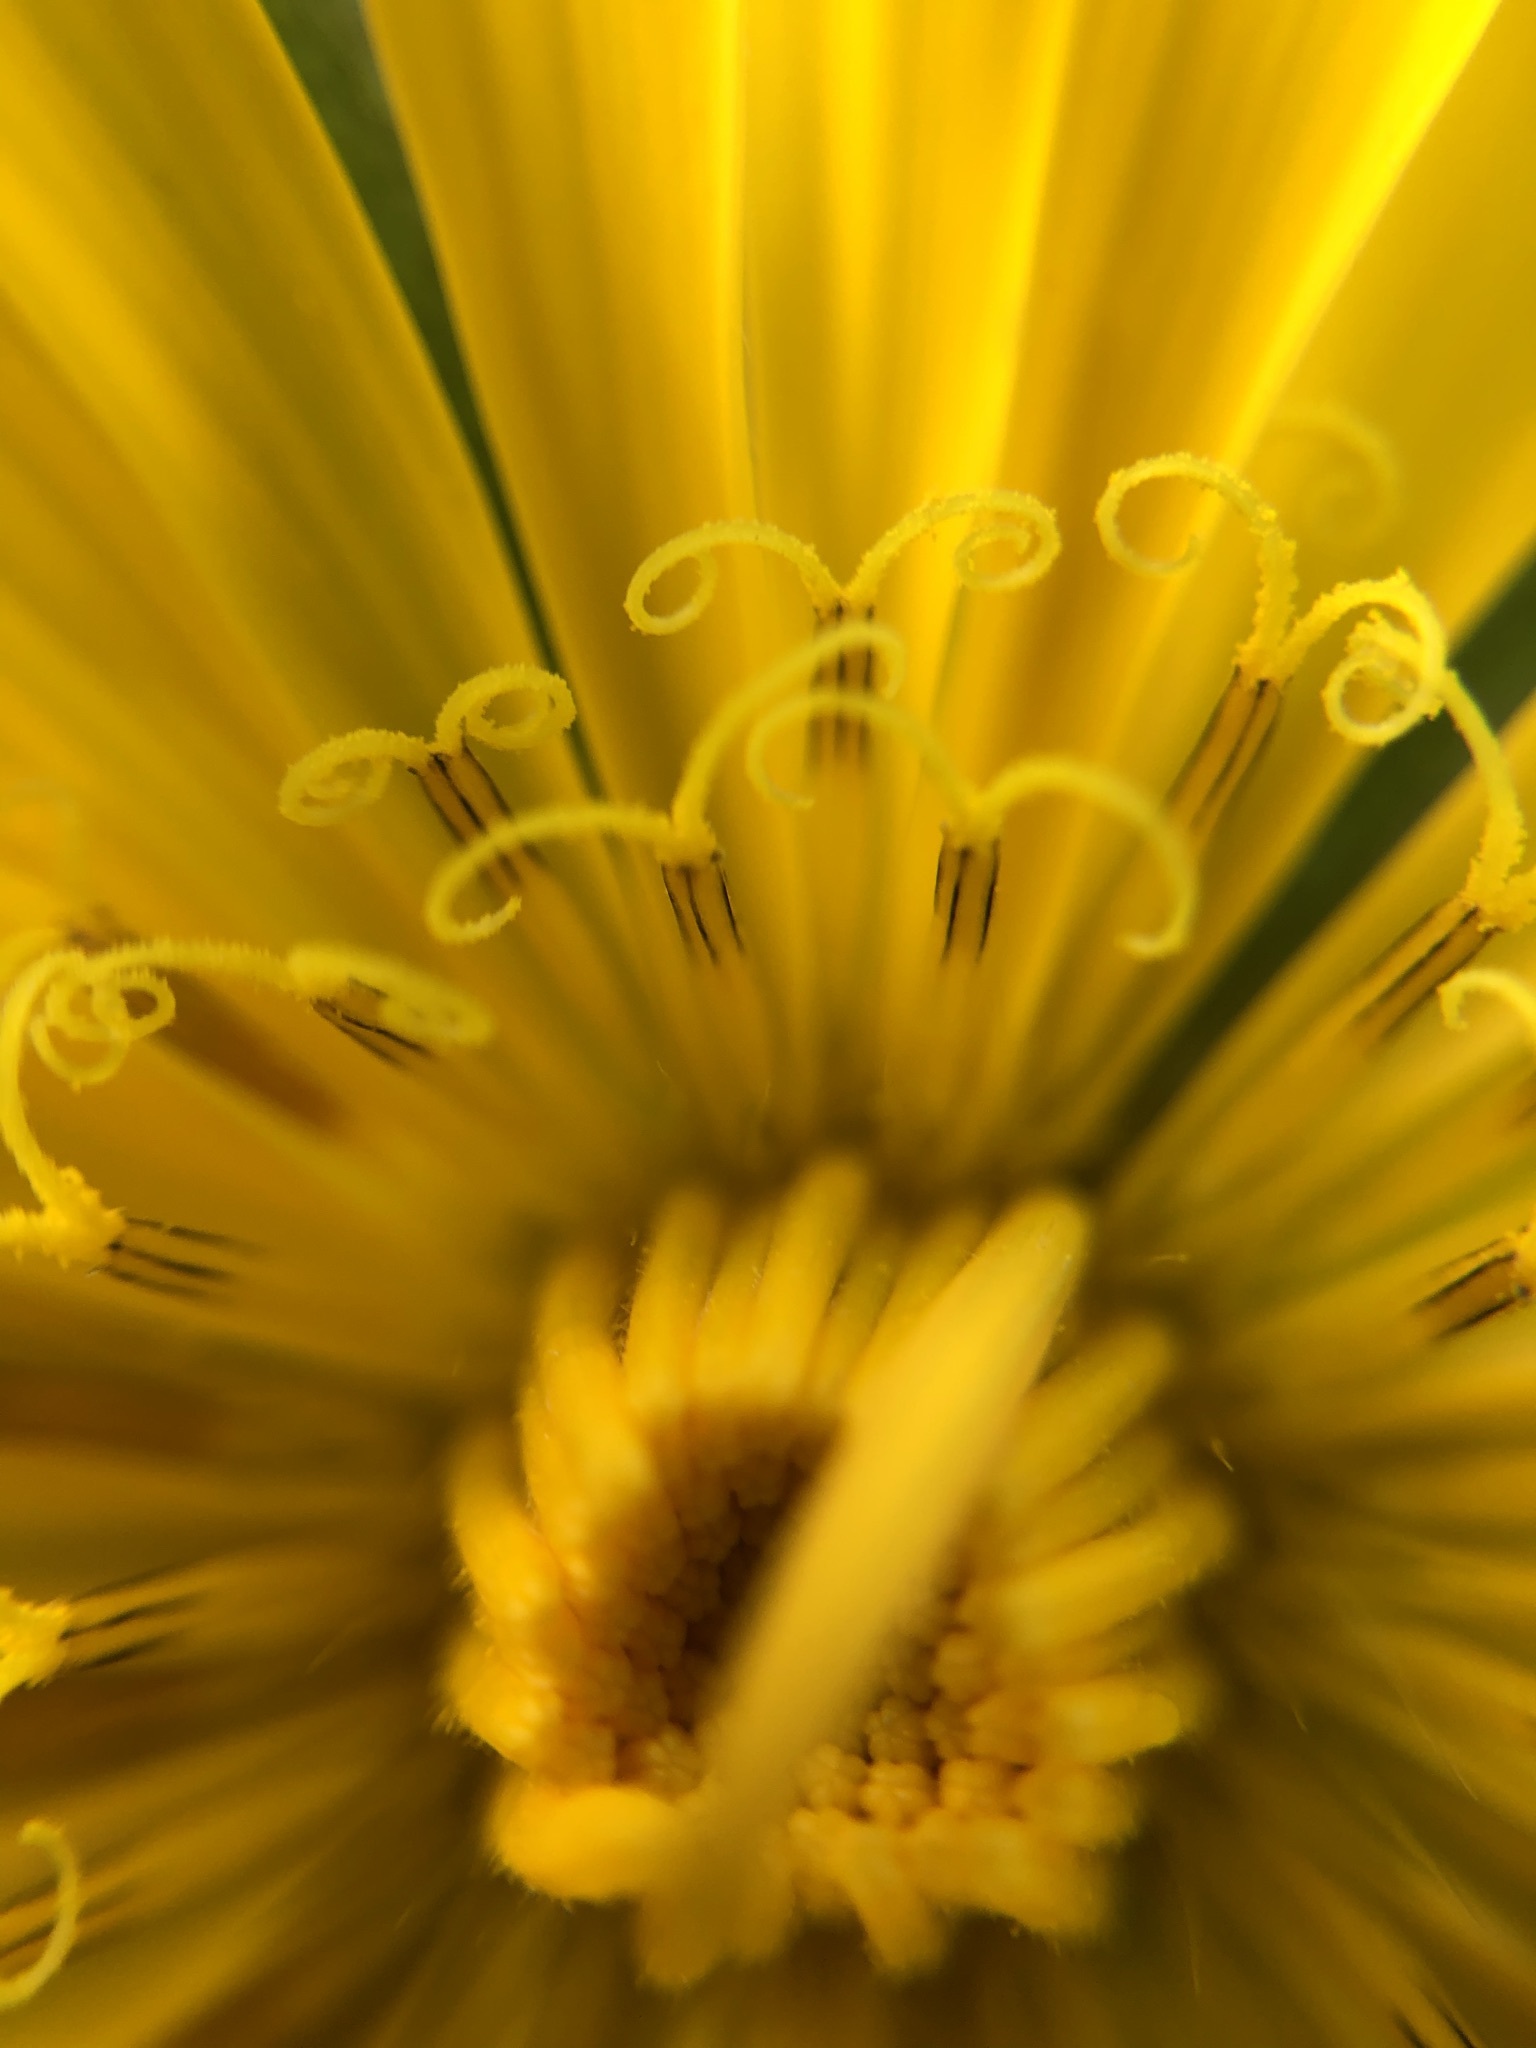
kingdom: Plantae
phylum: Tracheophyta
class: Magnoliopsida
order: Asterales
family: Asteraceae
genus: Tragopogon
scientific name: Tragopogon orientalis
